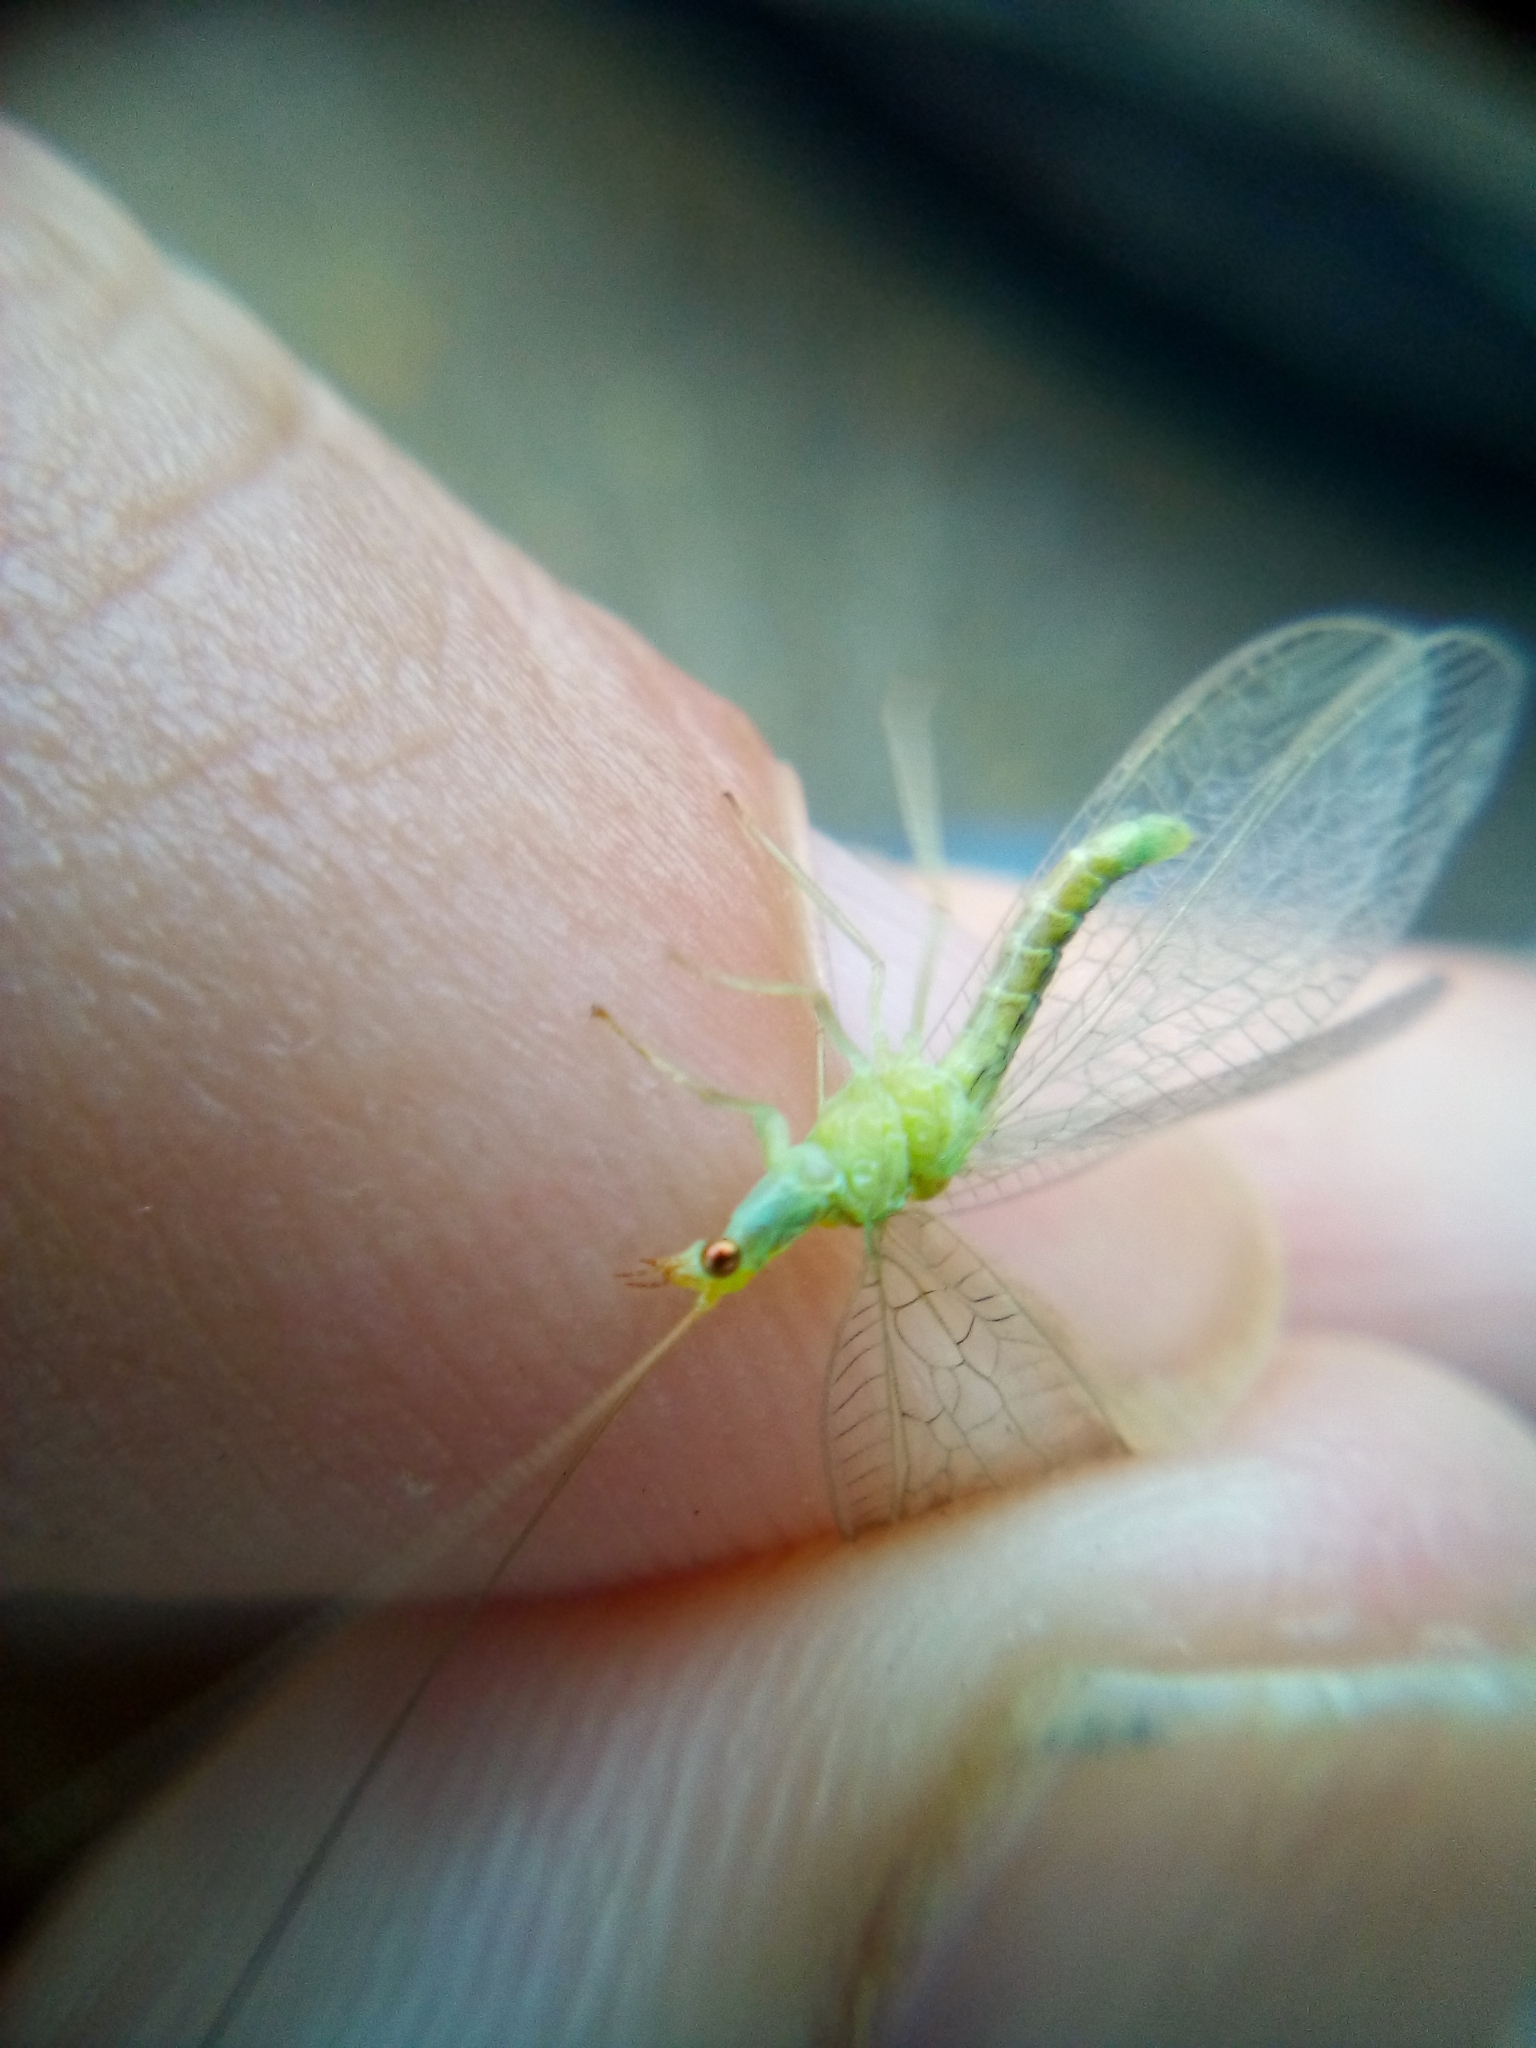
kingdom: Animalia
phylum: Arthropoda
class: Insecta
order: Neuroptera
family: Chrysopidae
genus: Mallada
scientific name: Mallada basalis
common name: Green lacewing
